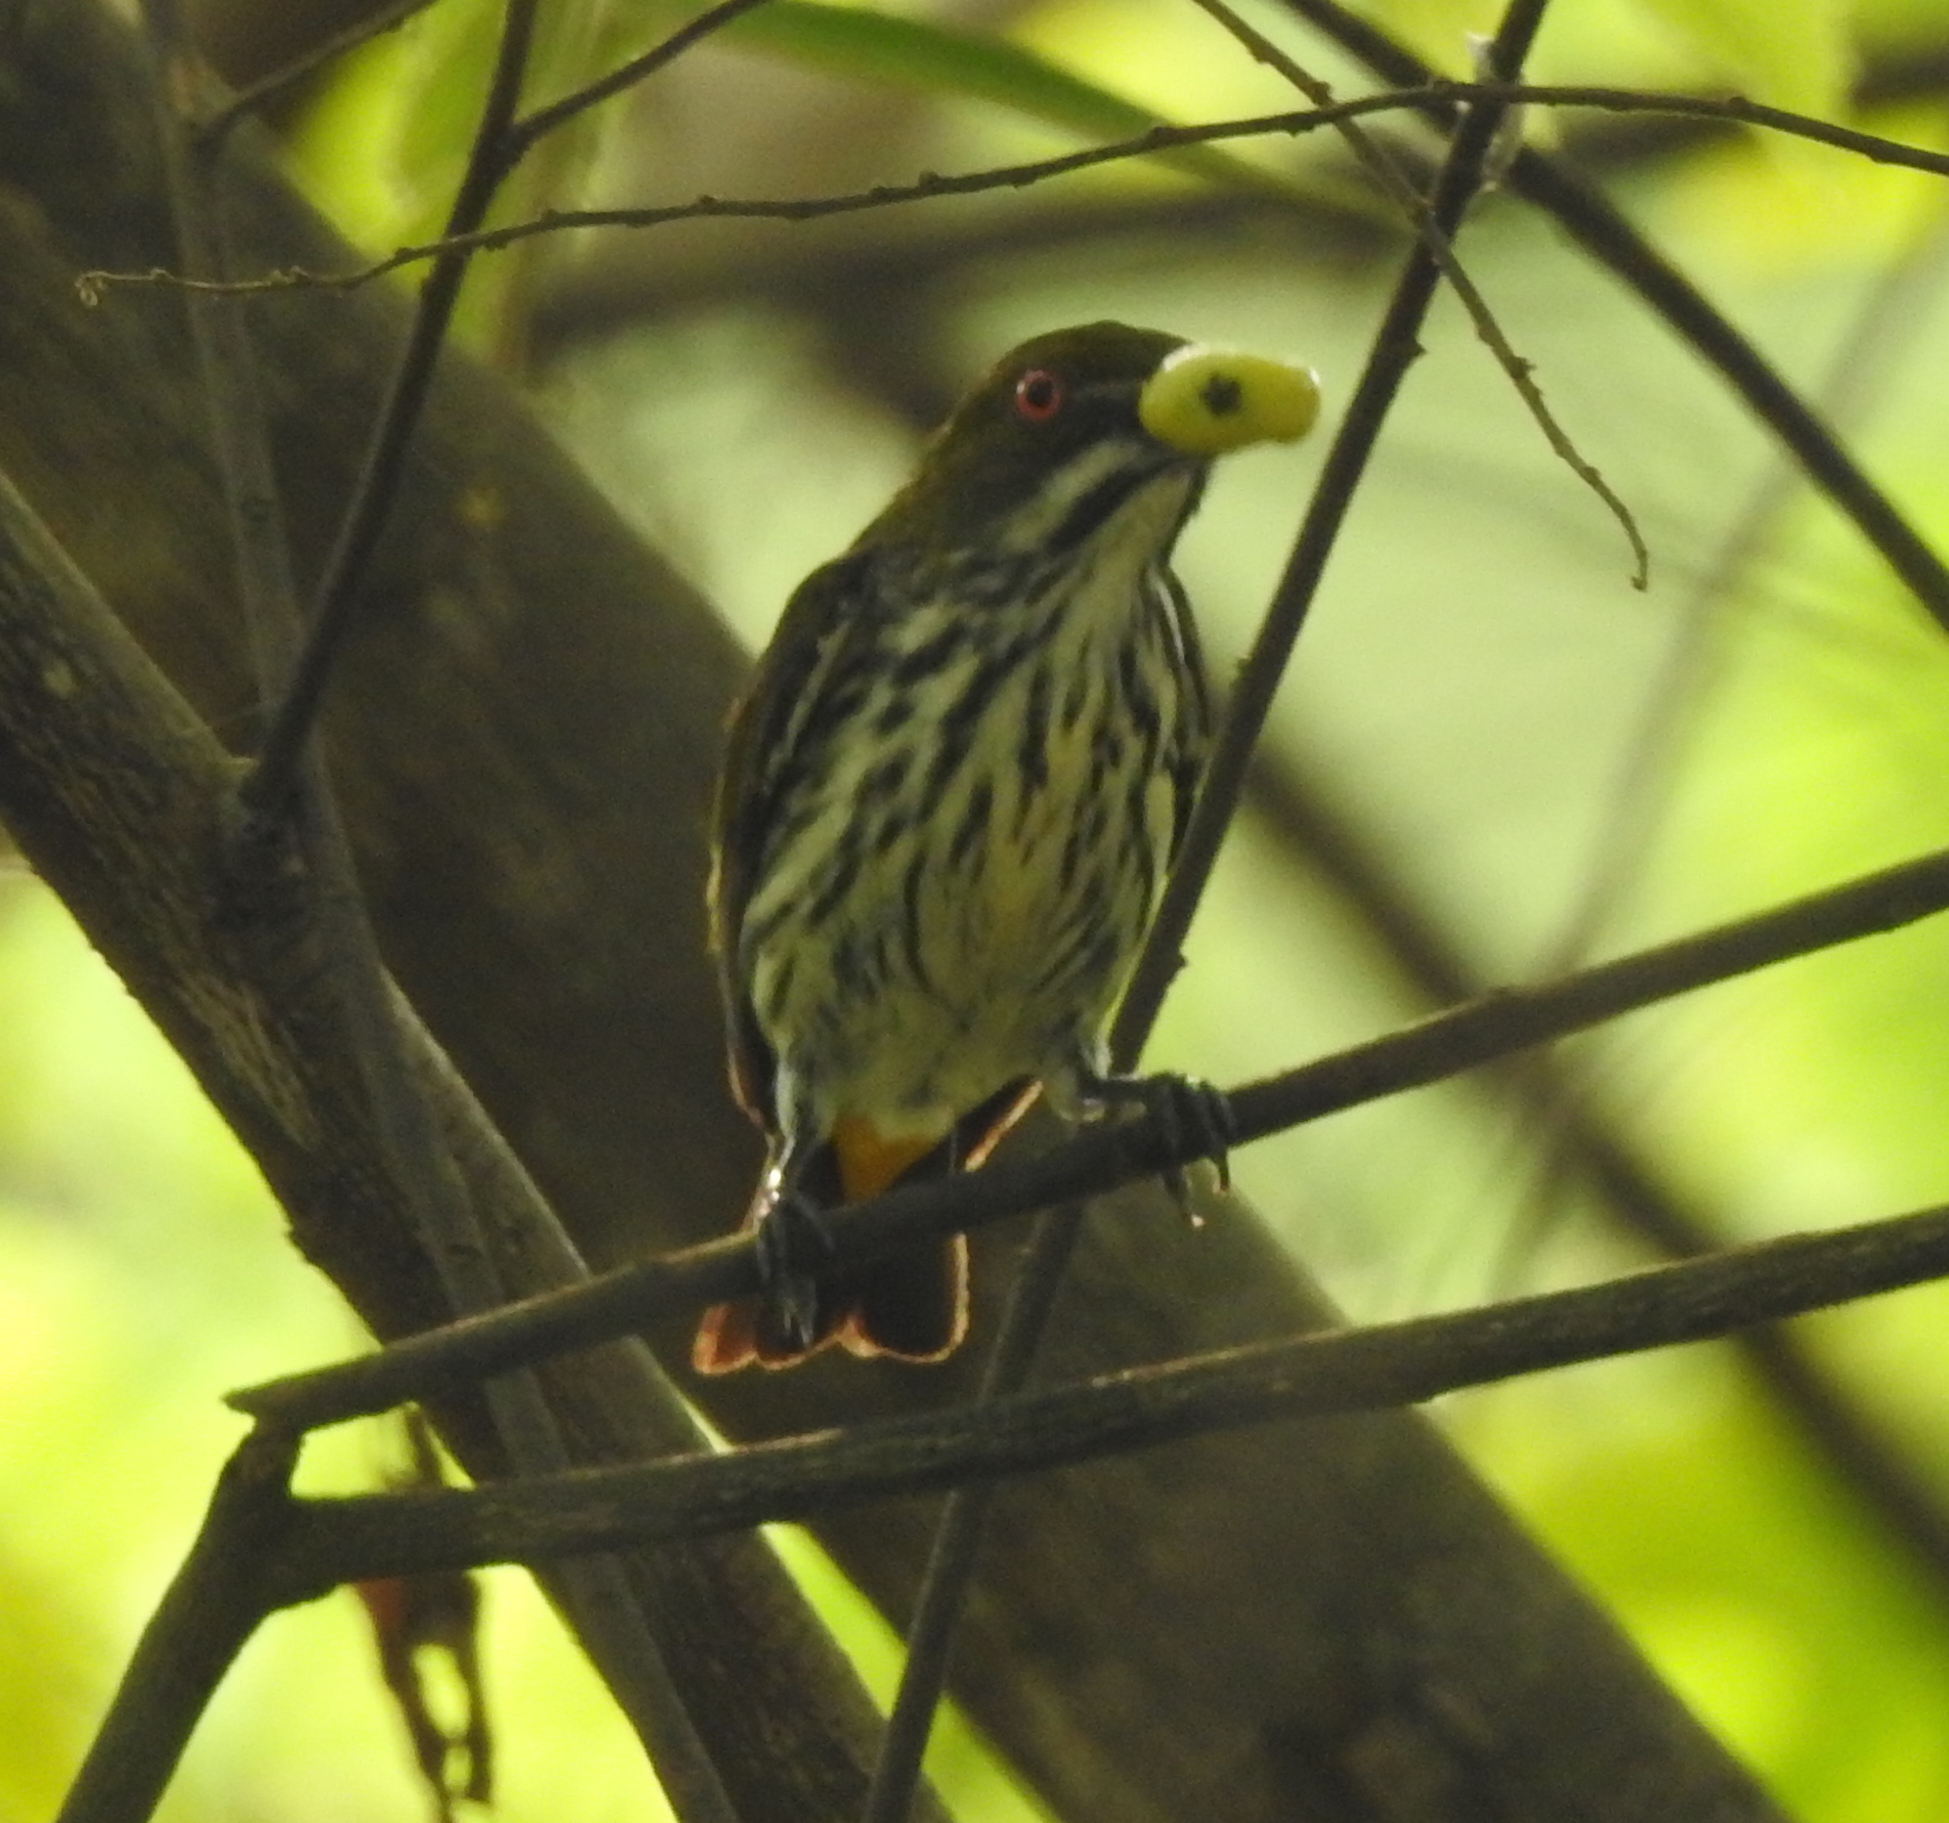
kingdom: Animalia
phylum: Chordata
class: Aves
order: Passeriformes
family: Dicaeidae
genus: Dicaeum
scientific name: Dicaeum chrysorrheum
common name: Yellow-vented flowerpecker
